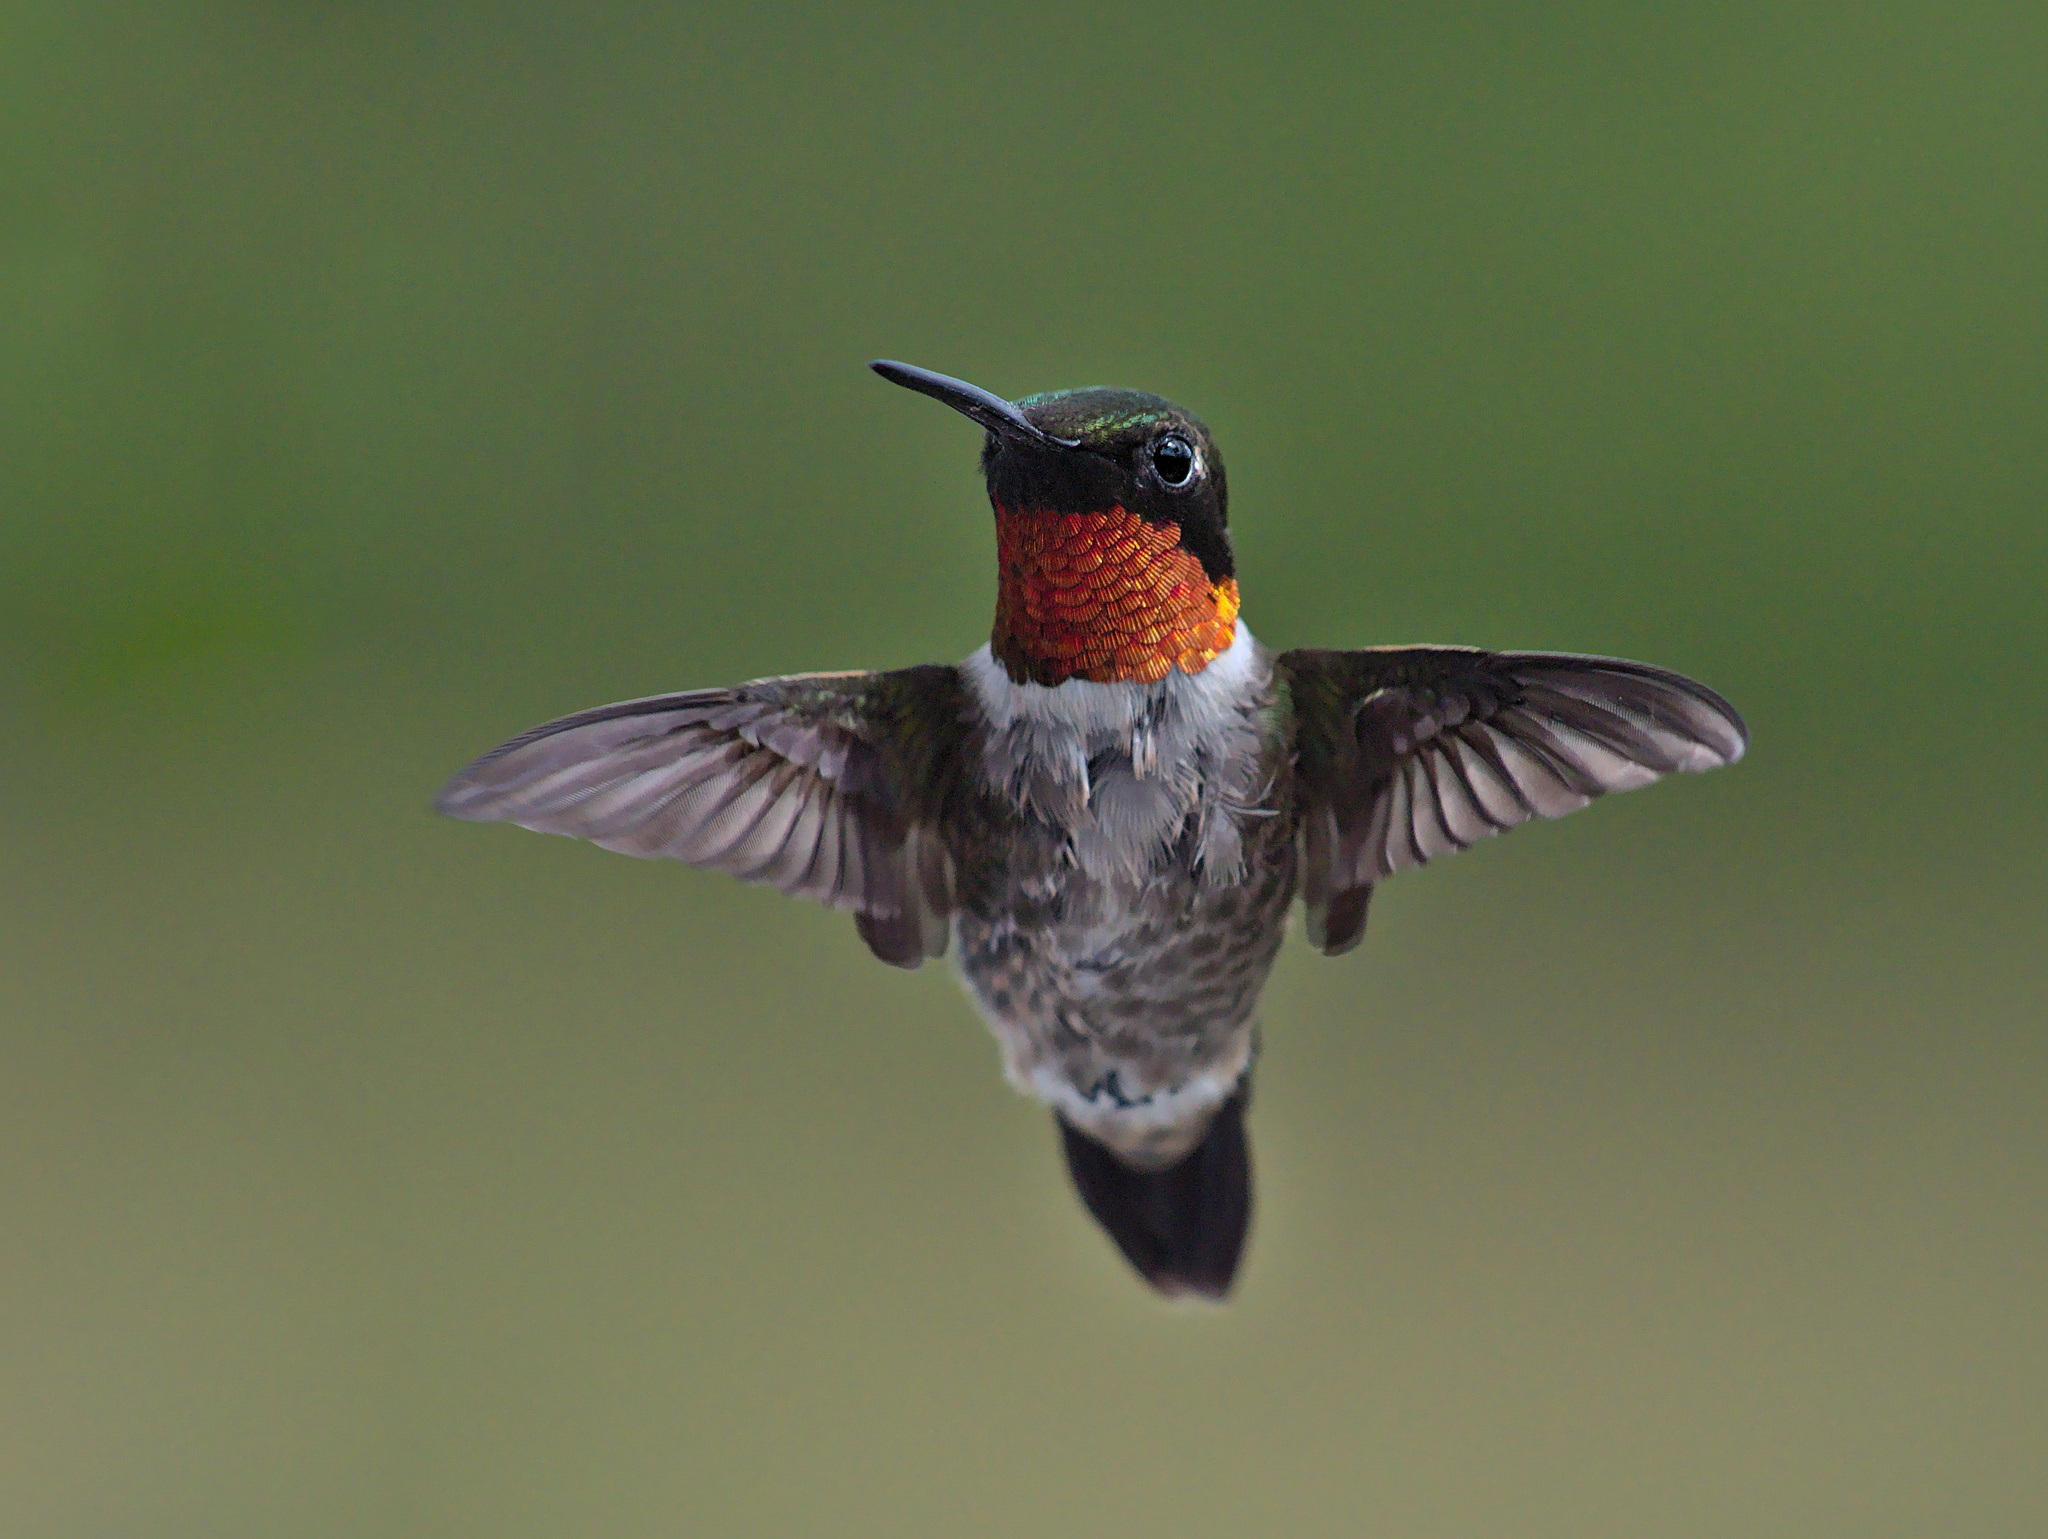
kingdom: Animalia
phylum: Chordata
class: Aves
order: Apodiformes
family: Trochilidae
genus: Archilochus
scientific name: Archilochus colubris
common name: Ruby-throated hummingbird
